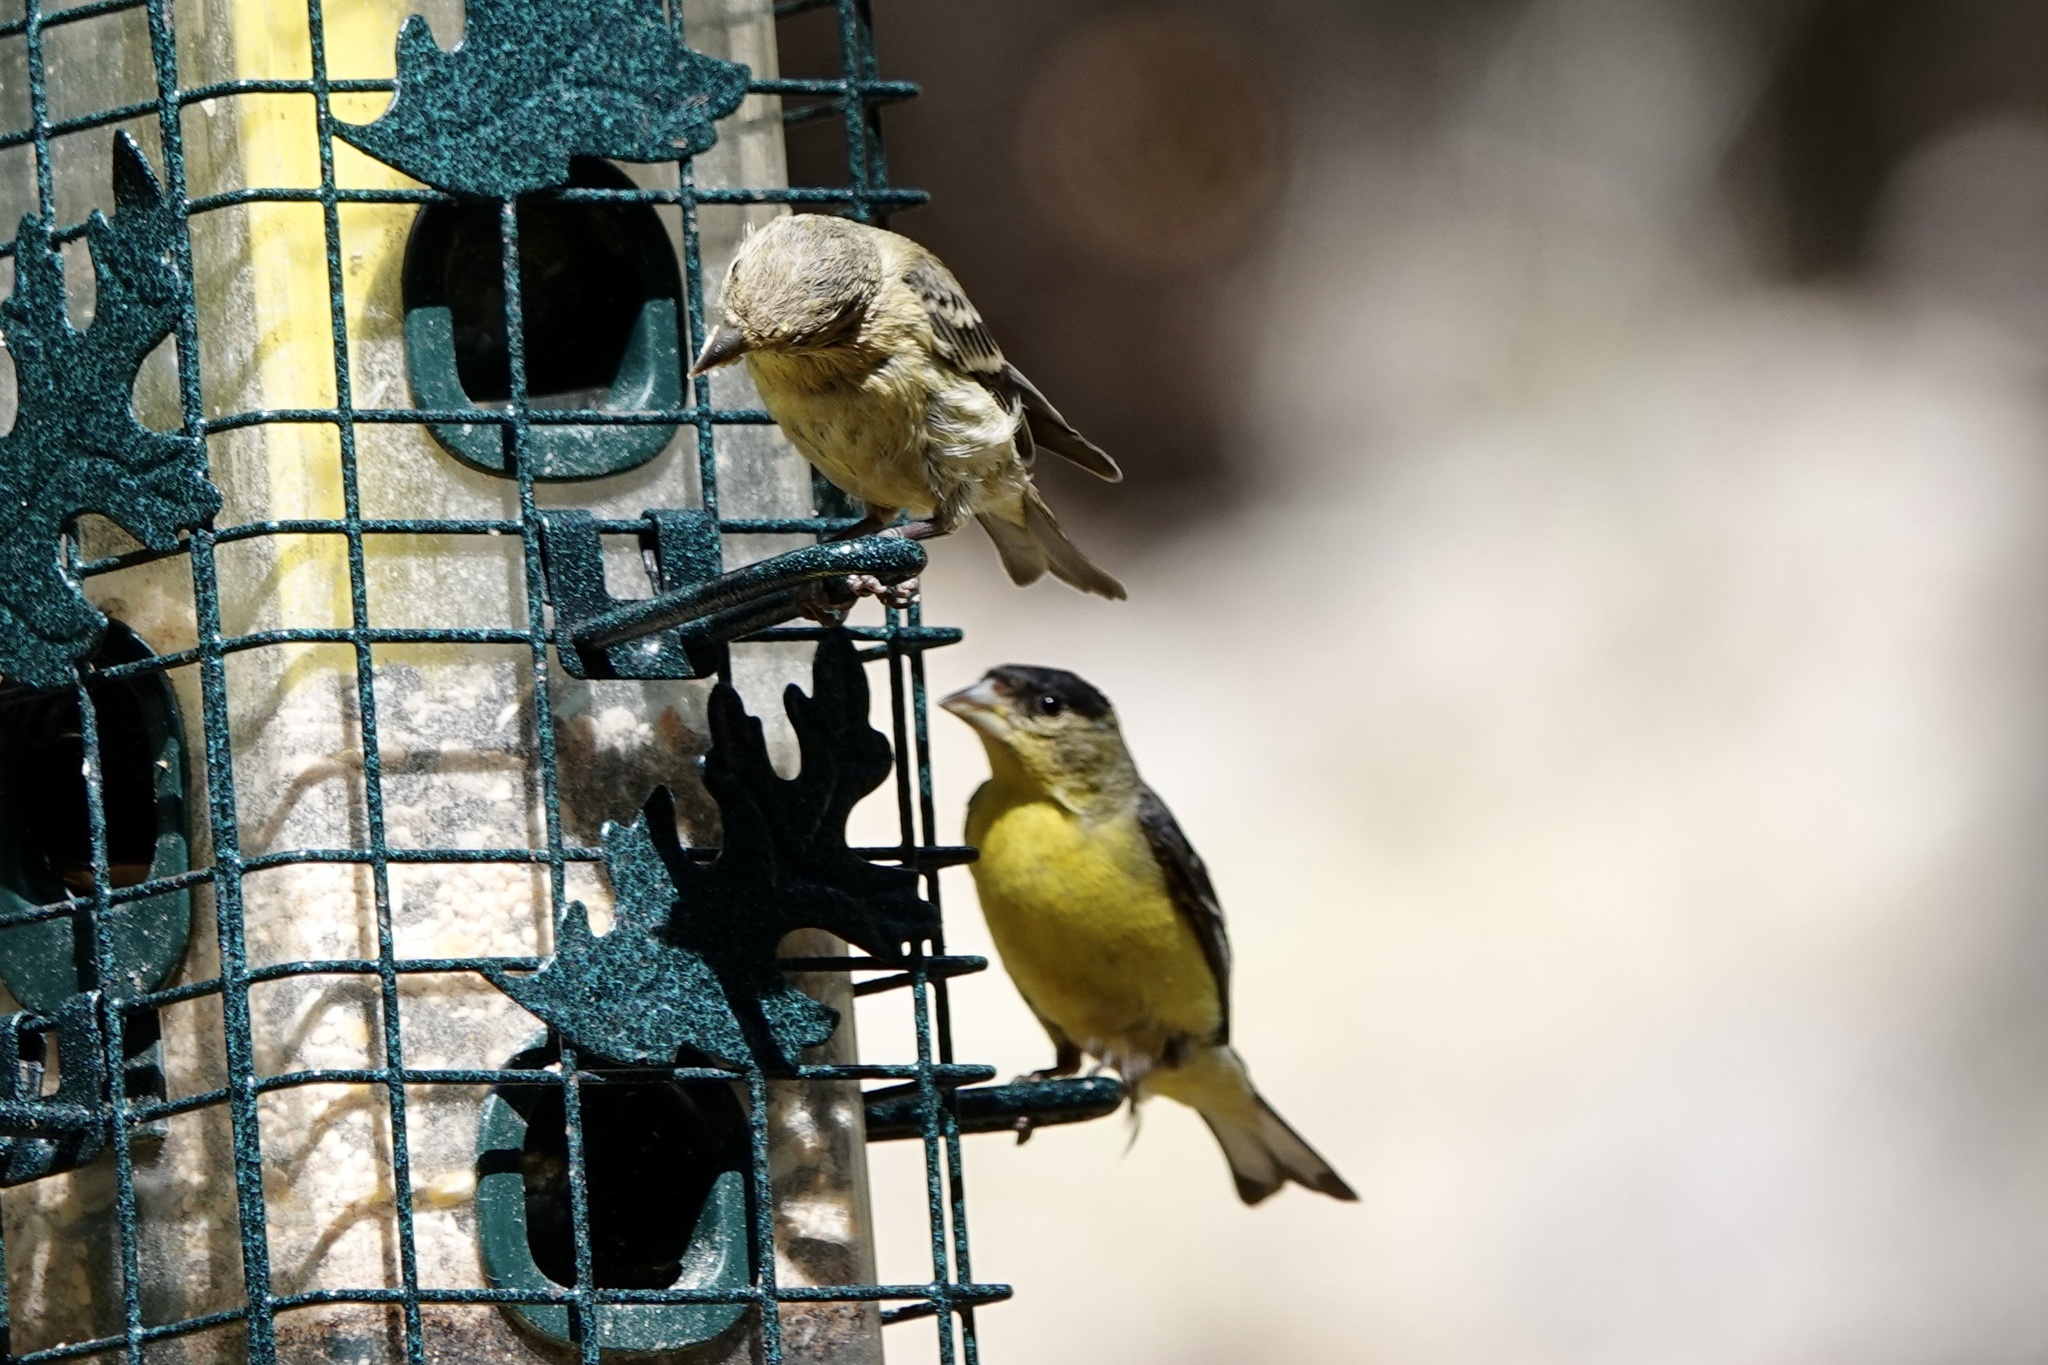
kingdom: Animalia
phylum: Chordata
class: Aves
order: Passeriformes
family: Fringillidae
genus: Spinus
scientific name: Spinus psaltria
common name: Lesser goldfinch
